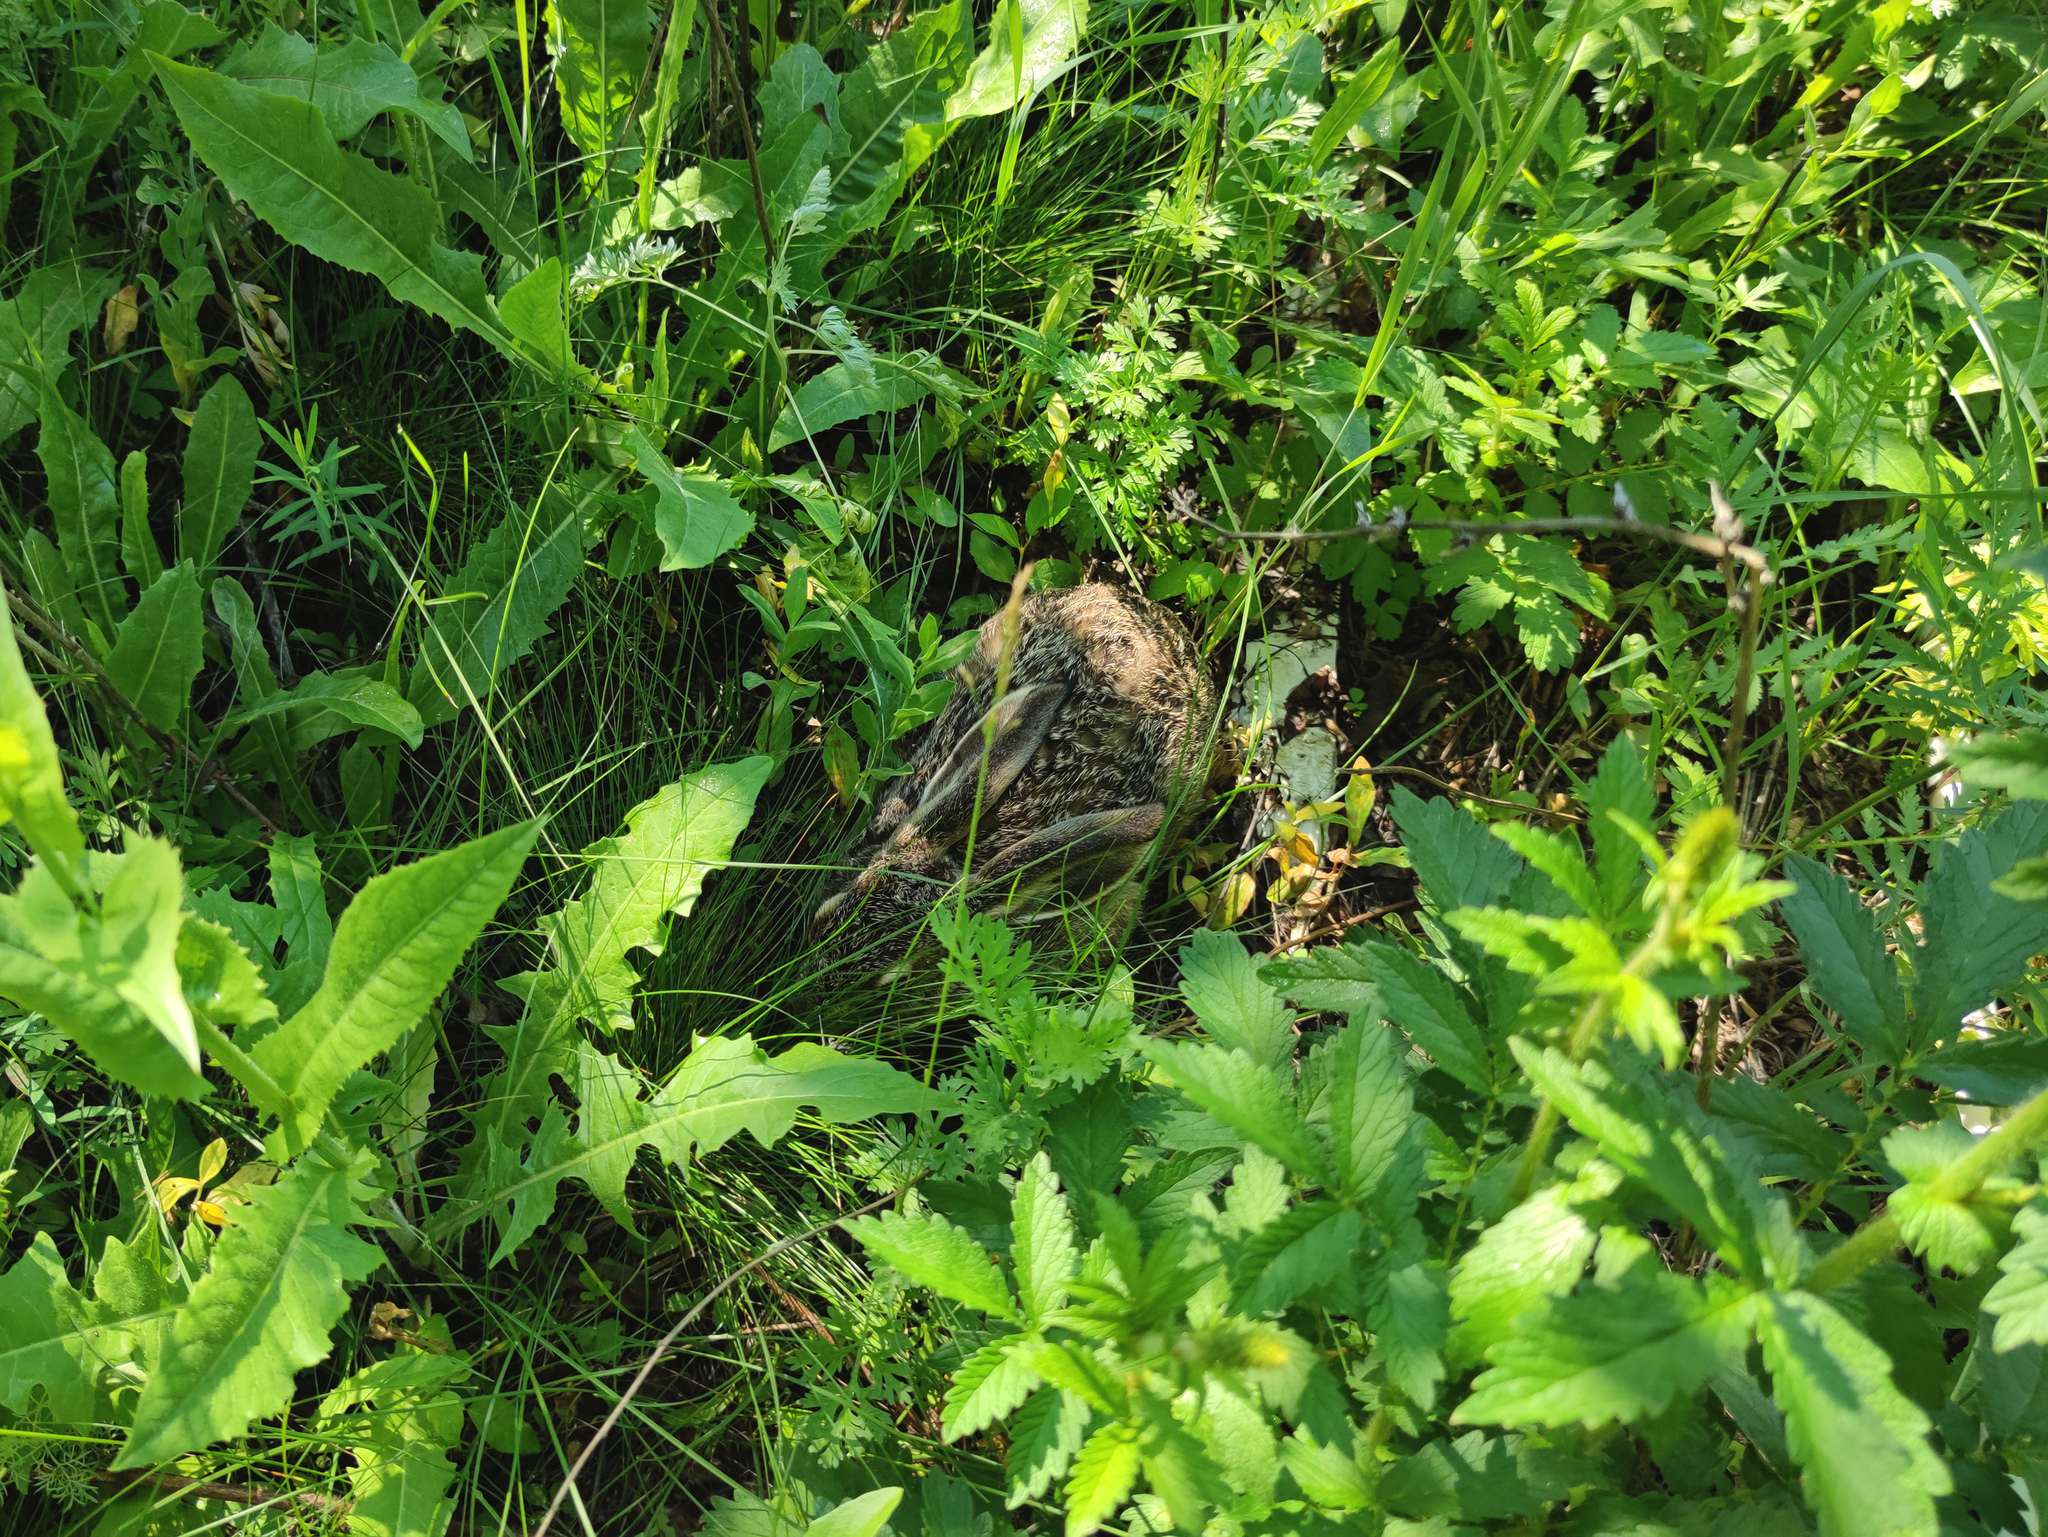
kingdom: Animalia
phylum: Chordata
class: Mammalia
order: Lagomorpha
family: Leporidae
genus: Lepus
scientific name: Lepus europaeus
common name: European hare
